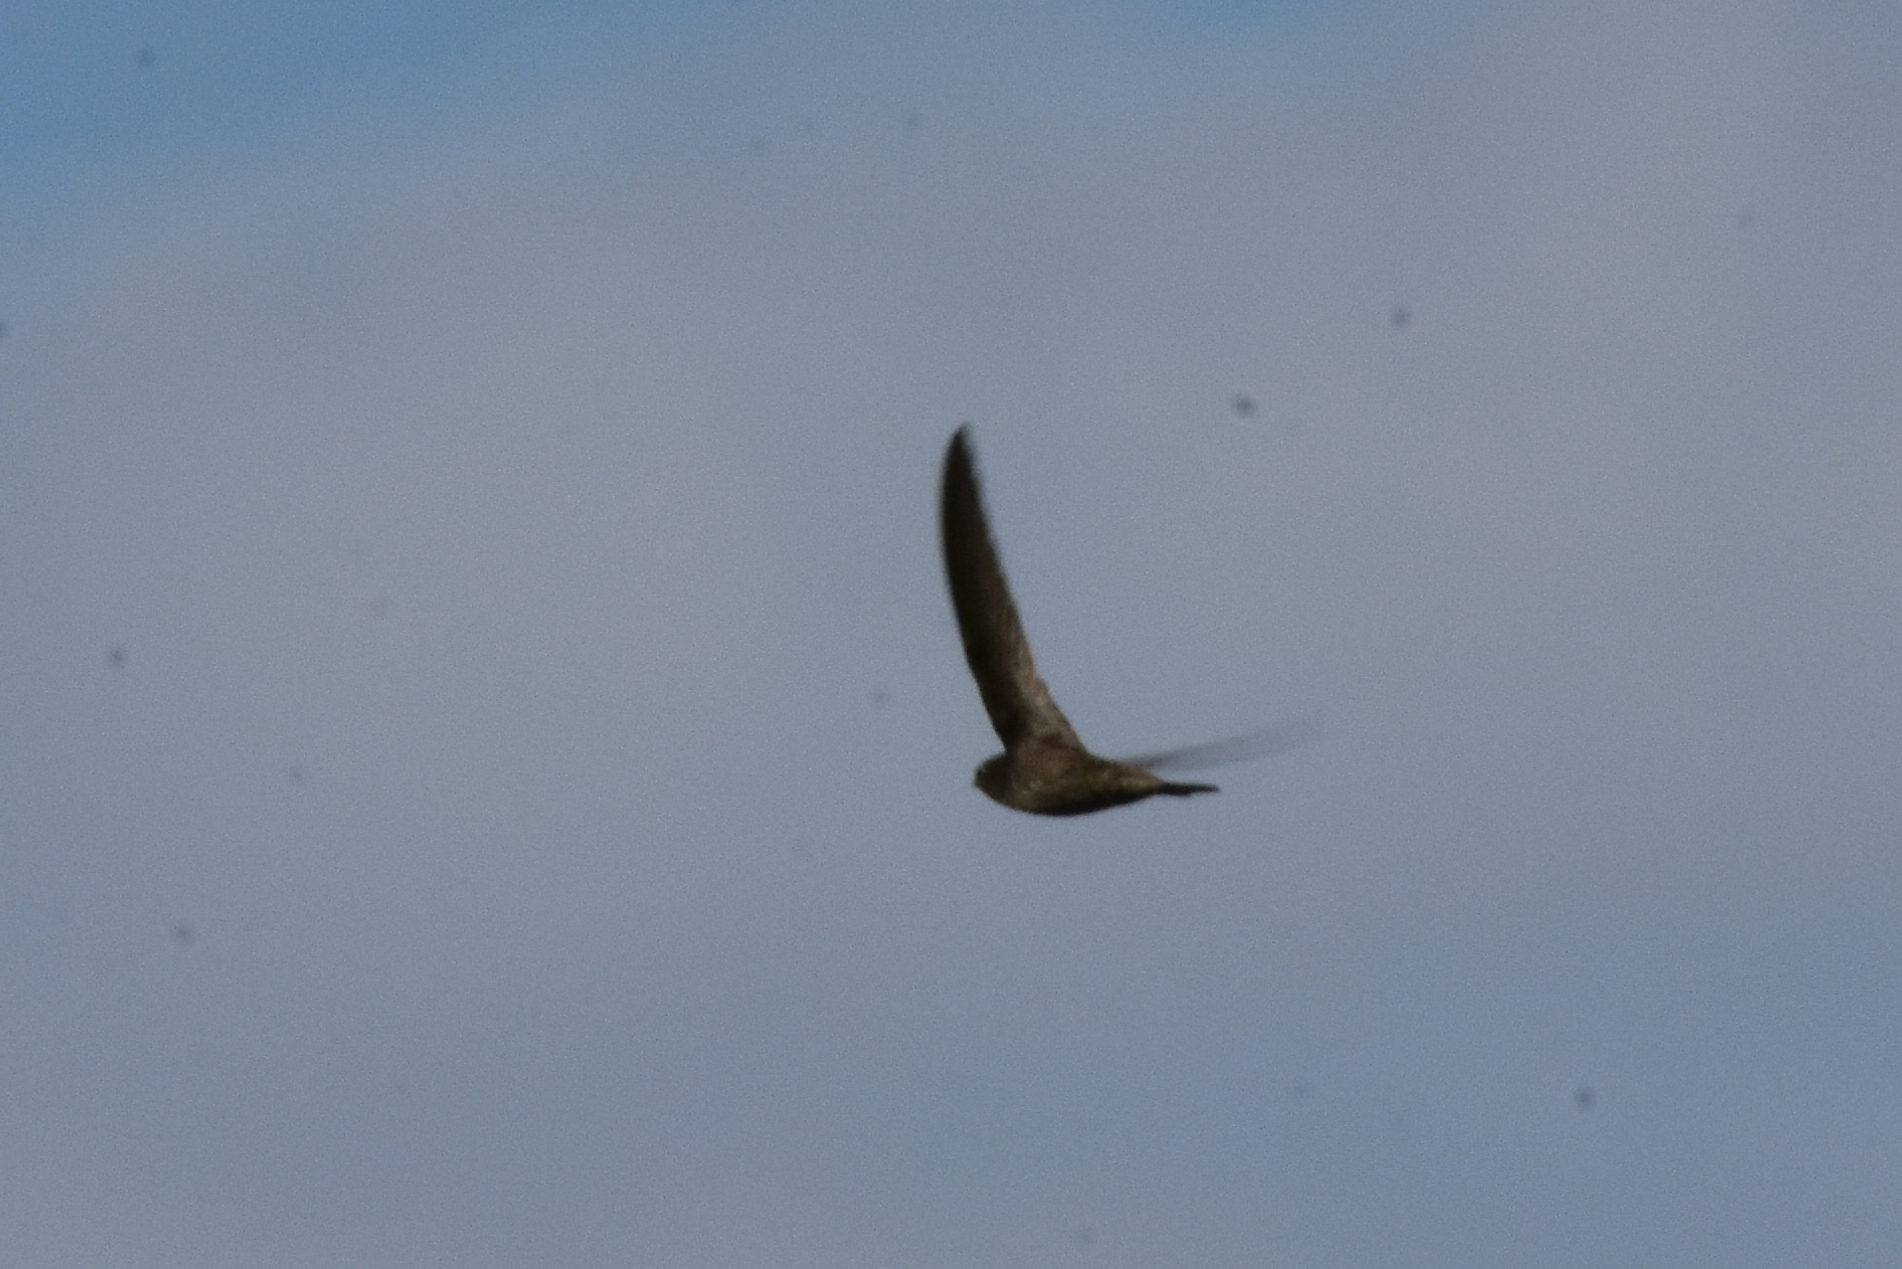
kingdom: Animalia
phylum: Chordata
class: Aves
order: Apodiformes
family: Apodidae
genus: Apus
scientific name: Apus apus
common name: Common swift
